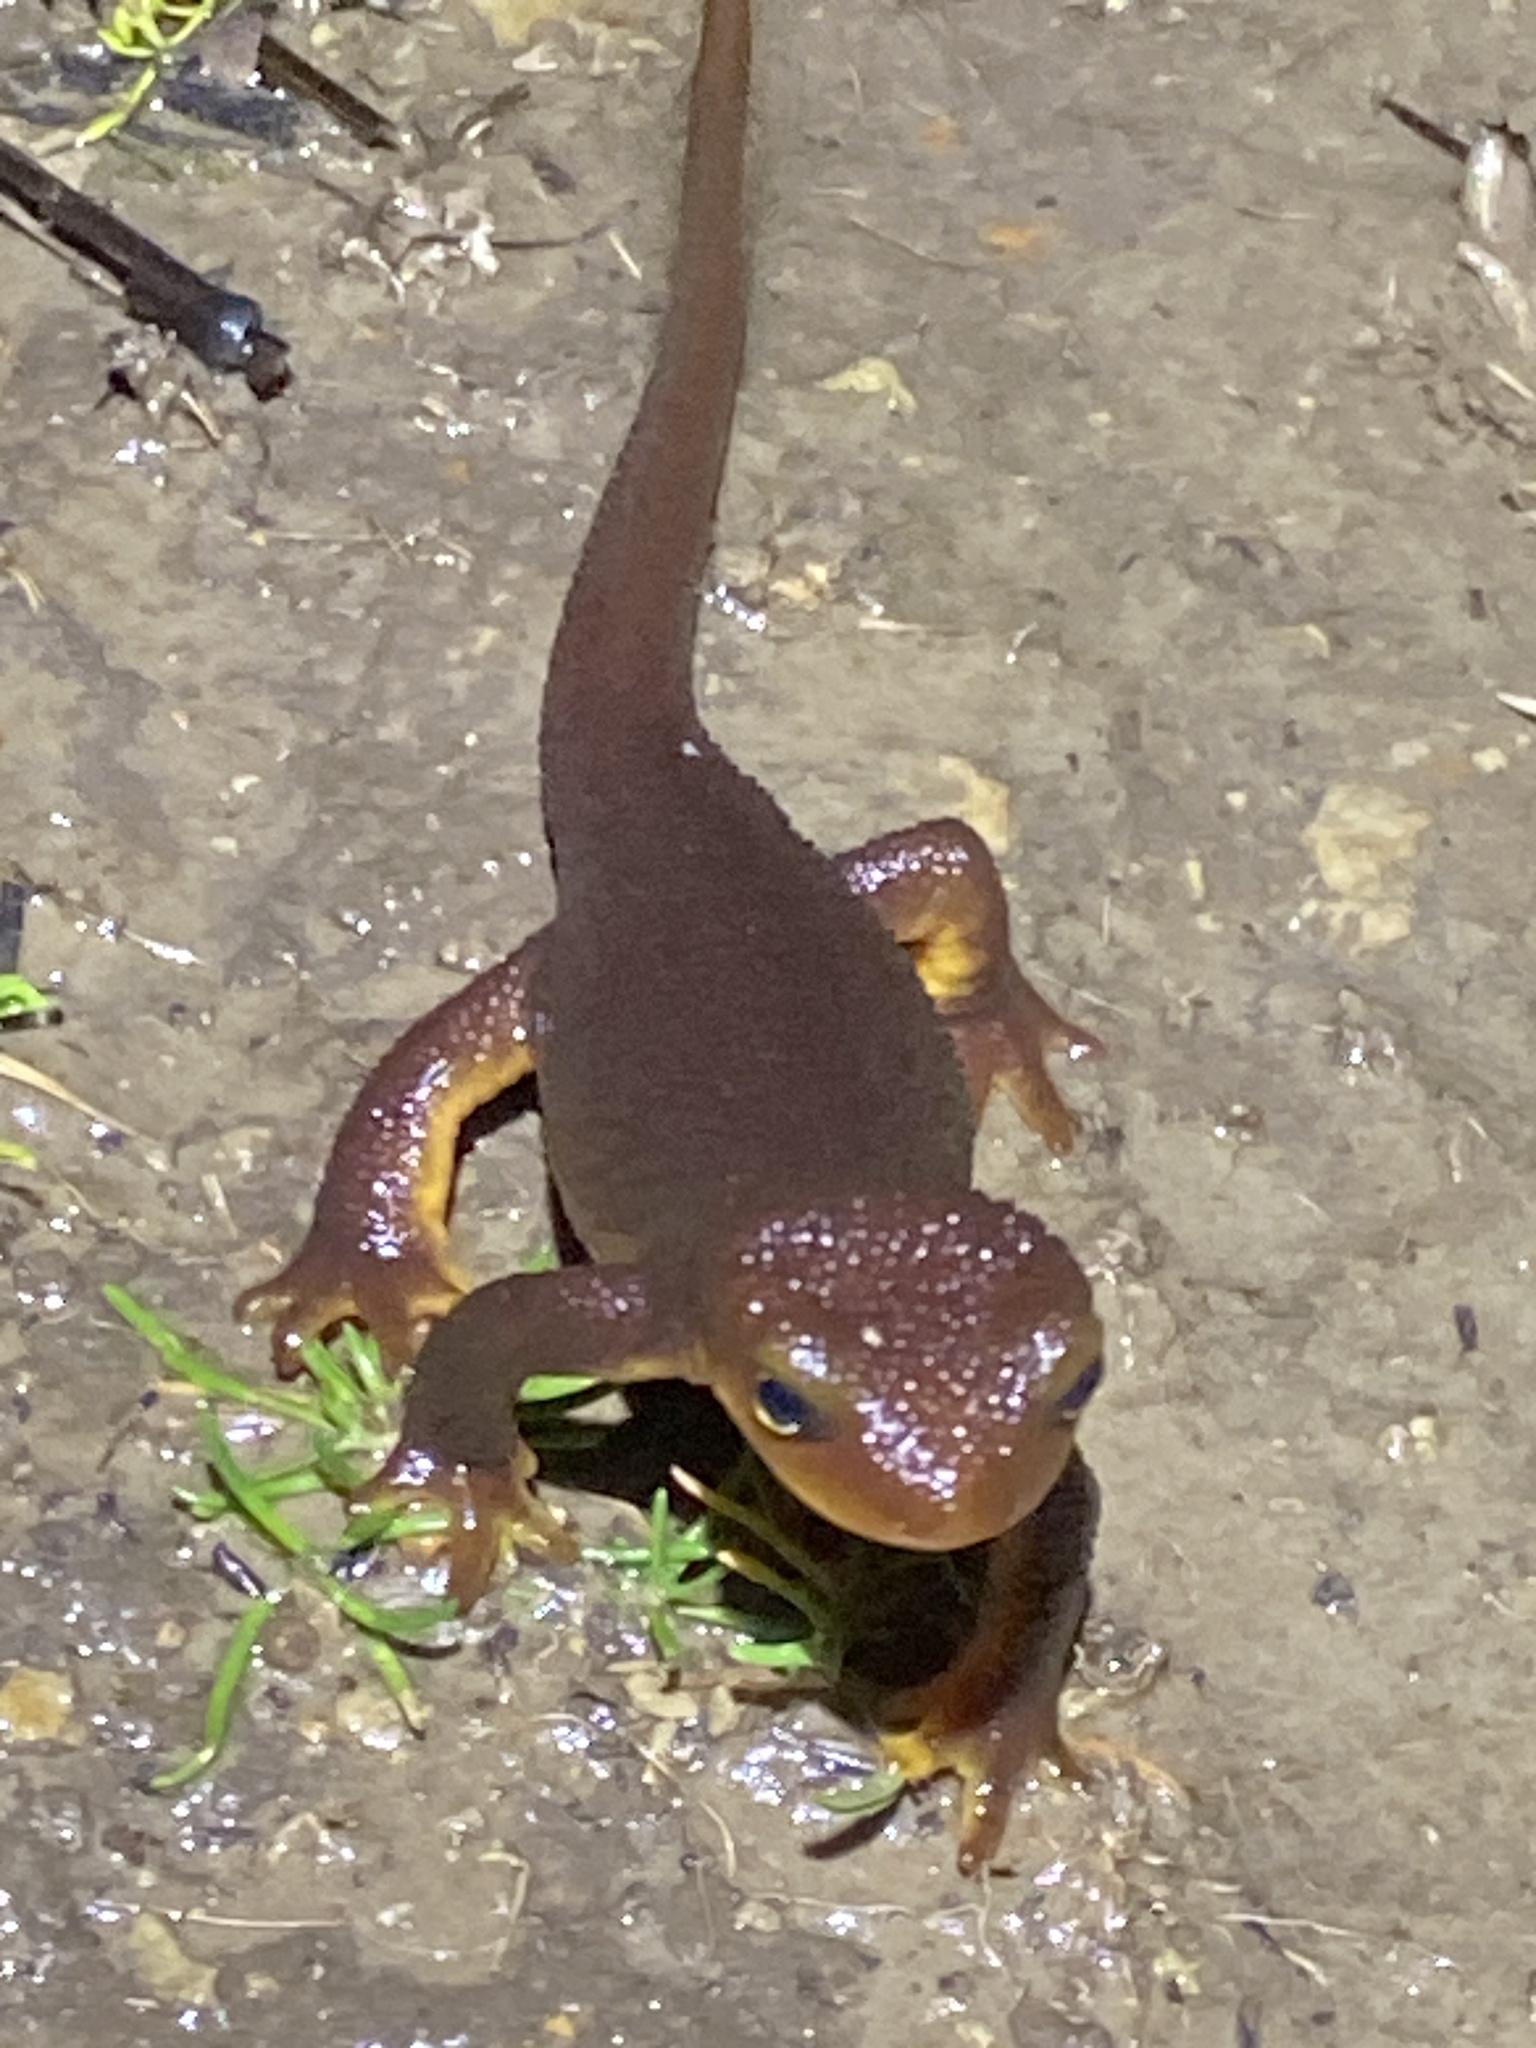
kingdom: Animalia
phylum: Chordata
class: Amphibia
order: Caudata
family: Salamandridae
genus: Taricha
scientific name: Taricha torosa
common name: California newt
